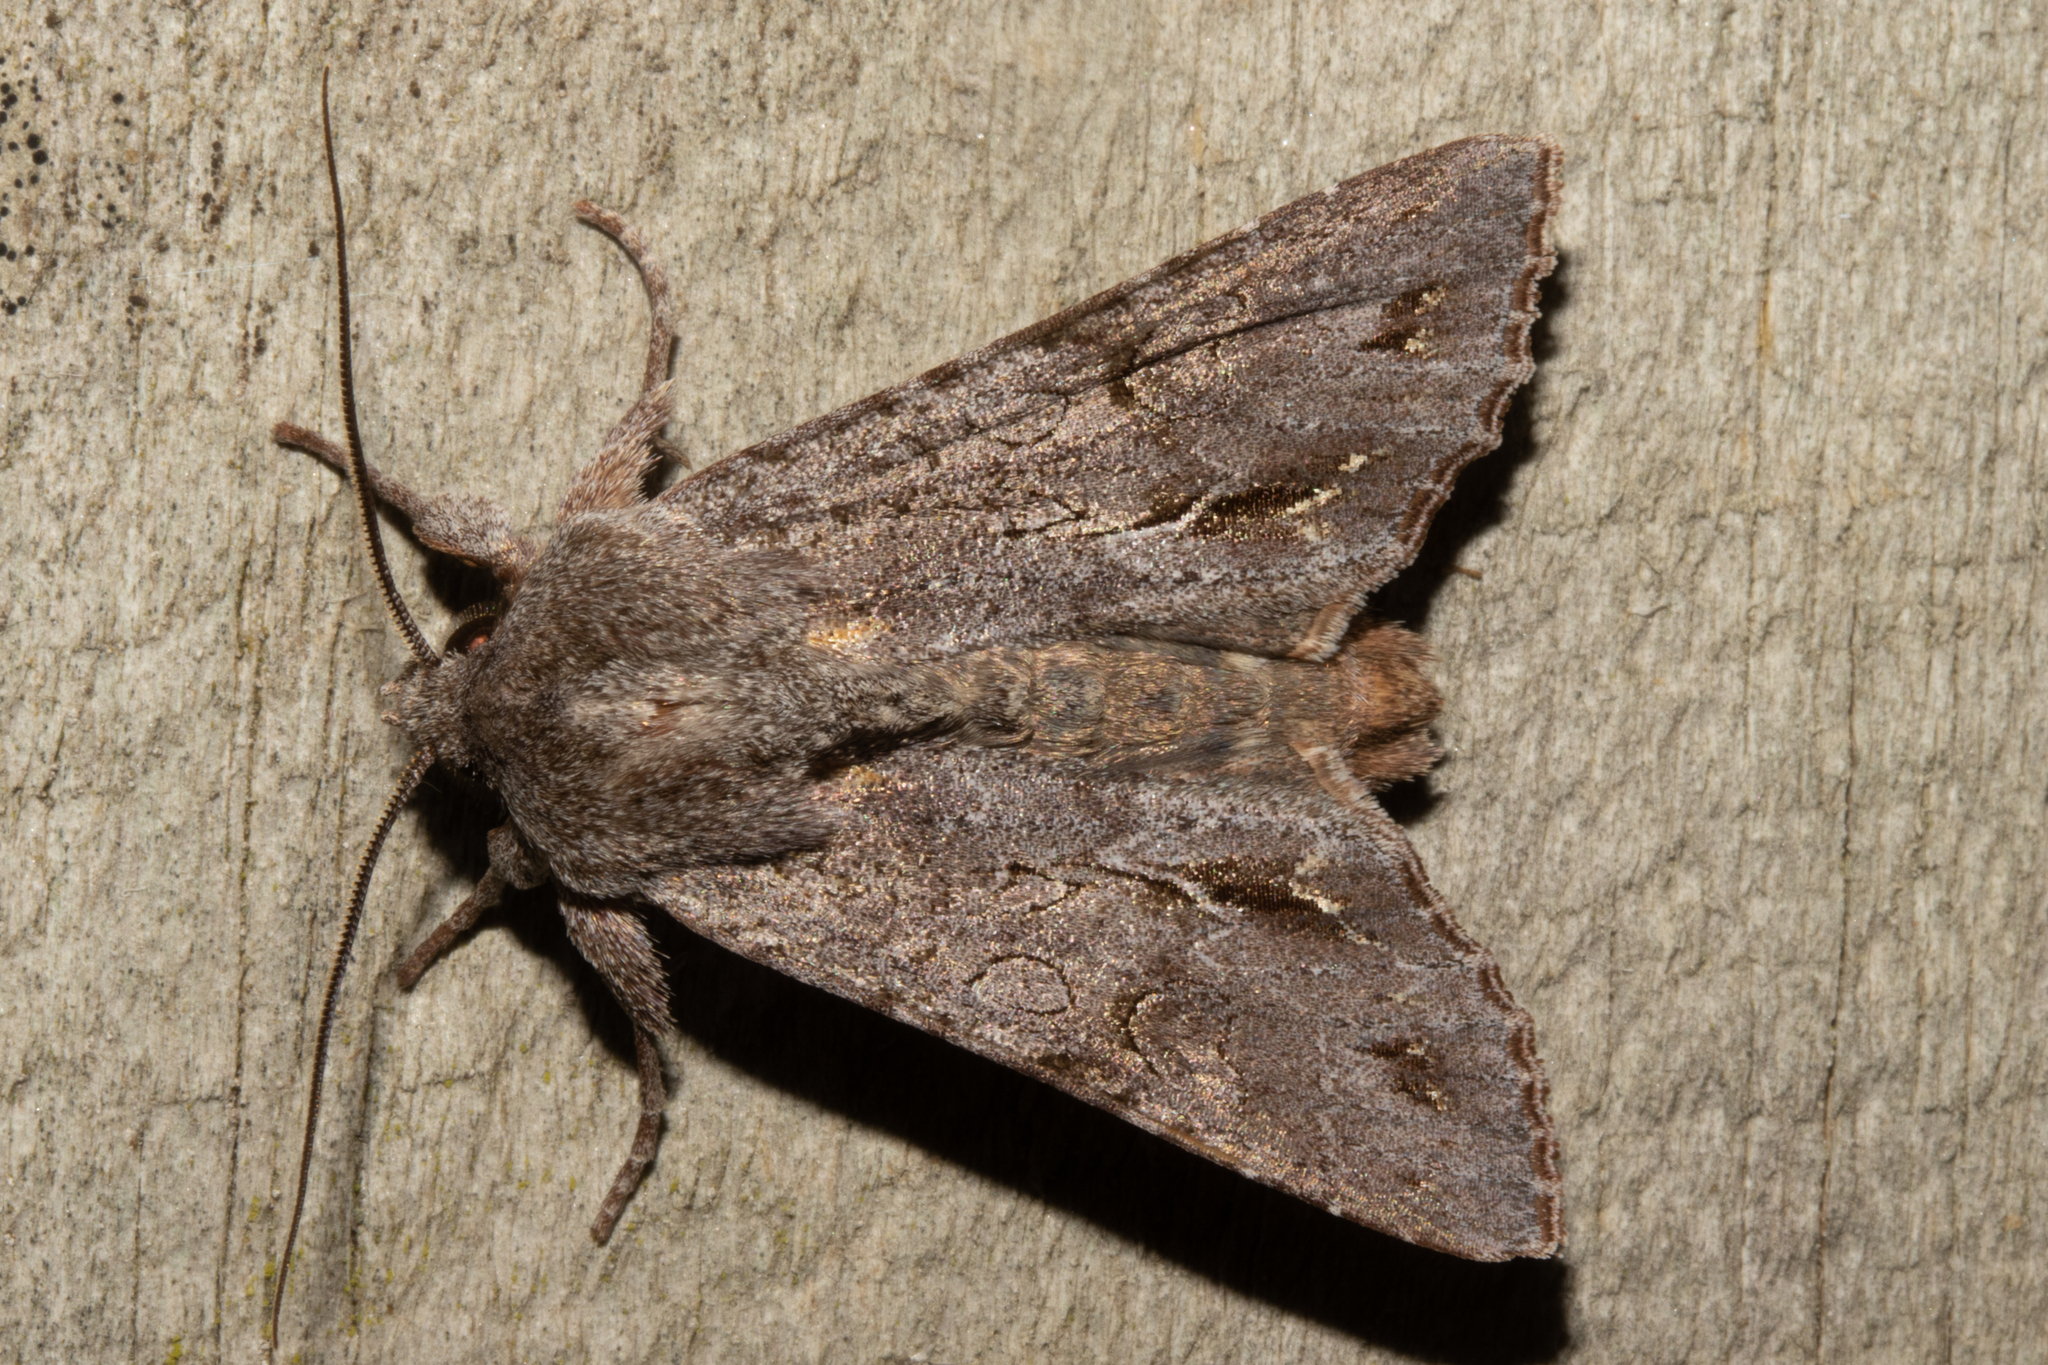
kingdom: Animalia
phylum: Arthropoda
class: Insecta
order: Lepidoptera
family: Noctuidae
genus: Ichneutica
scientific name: Ichneutica
